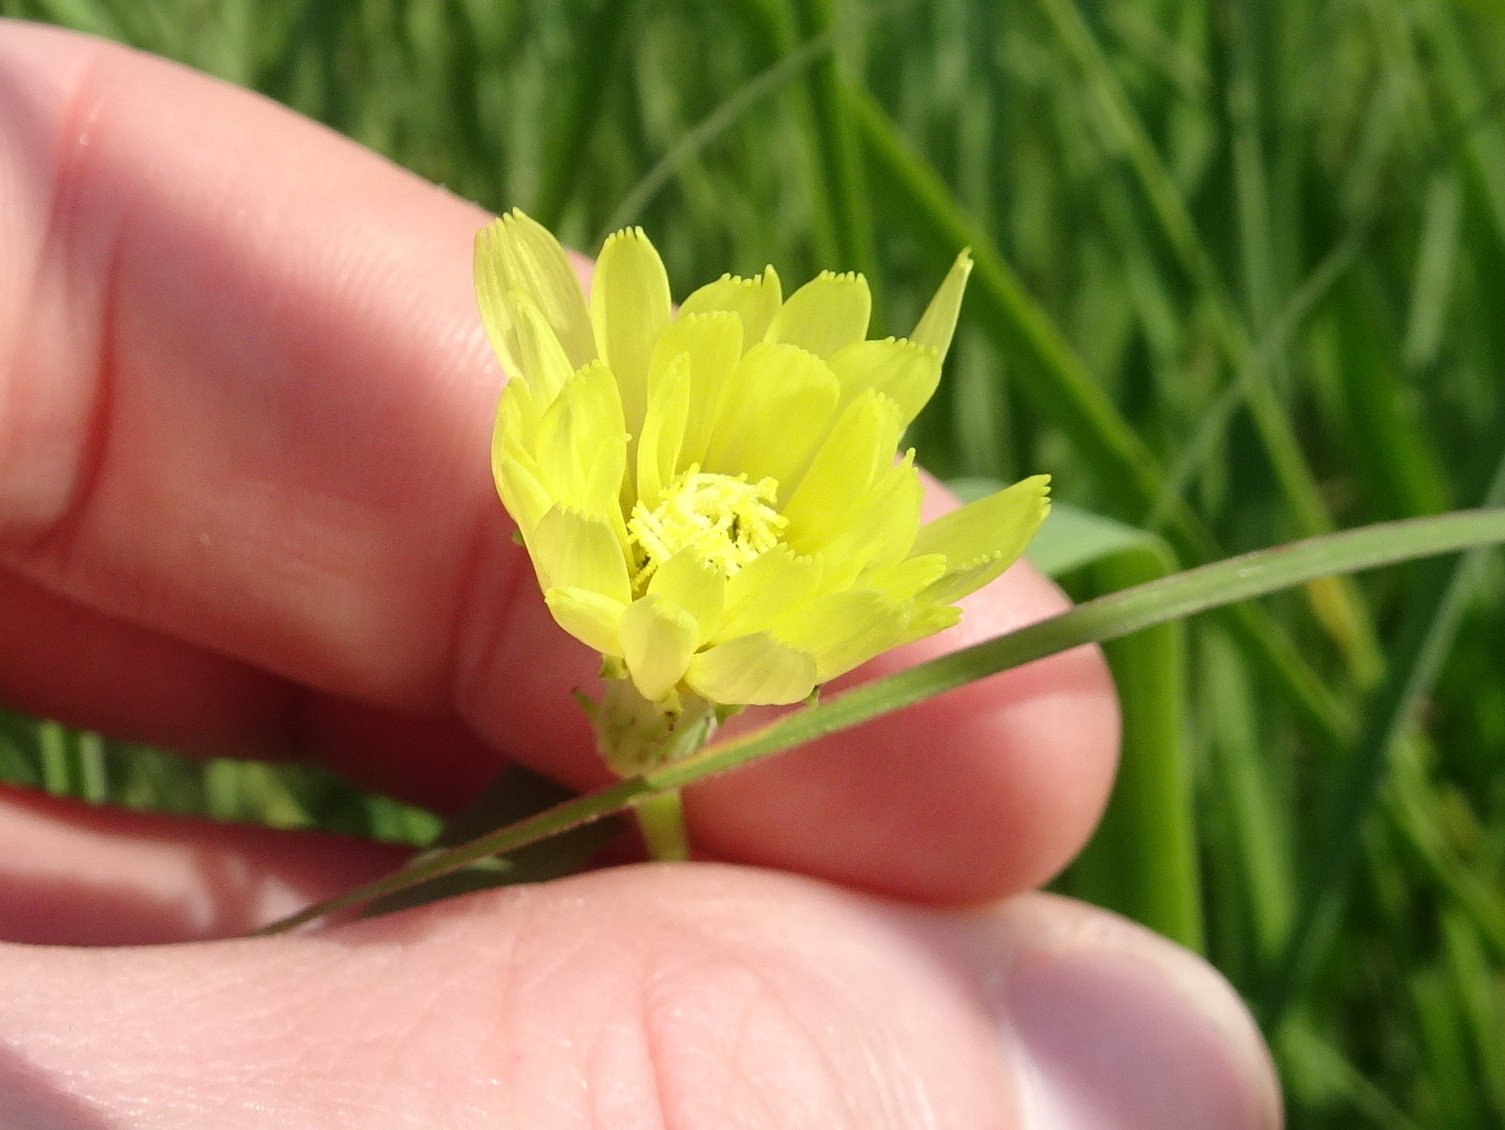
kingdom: Plantae
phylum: Tracheophyta
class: Magnoliopsida
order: Asterales
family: Asteraceae
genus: Pyrrhopappus
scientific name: Pyrrhopappus carolinianus
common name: Carolina desert-chicory
